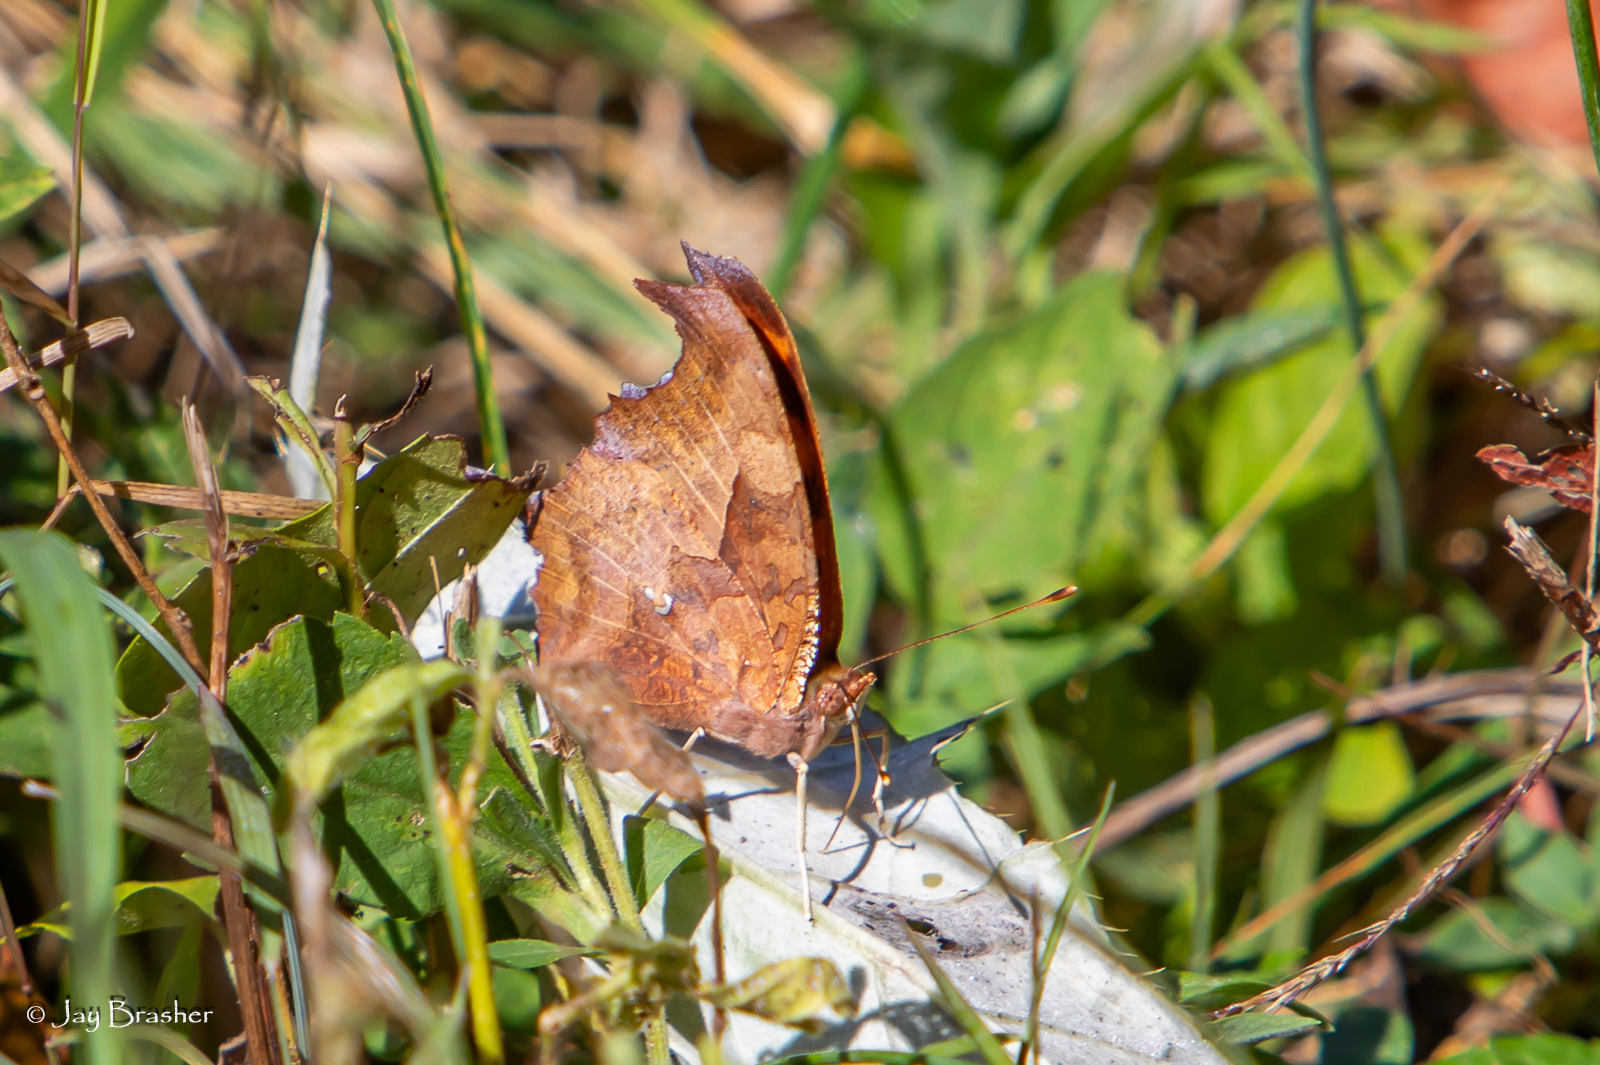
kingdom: Animalia
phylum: Arthropoda
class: Insecta
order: Lepidoptera
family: Nymphalidae
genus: Polygonia
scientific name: Polygonia interrogationis
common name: Question mark
